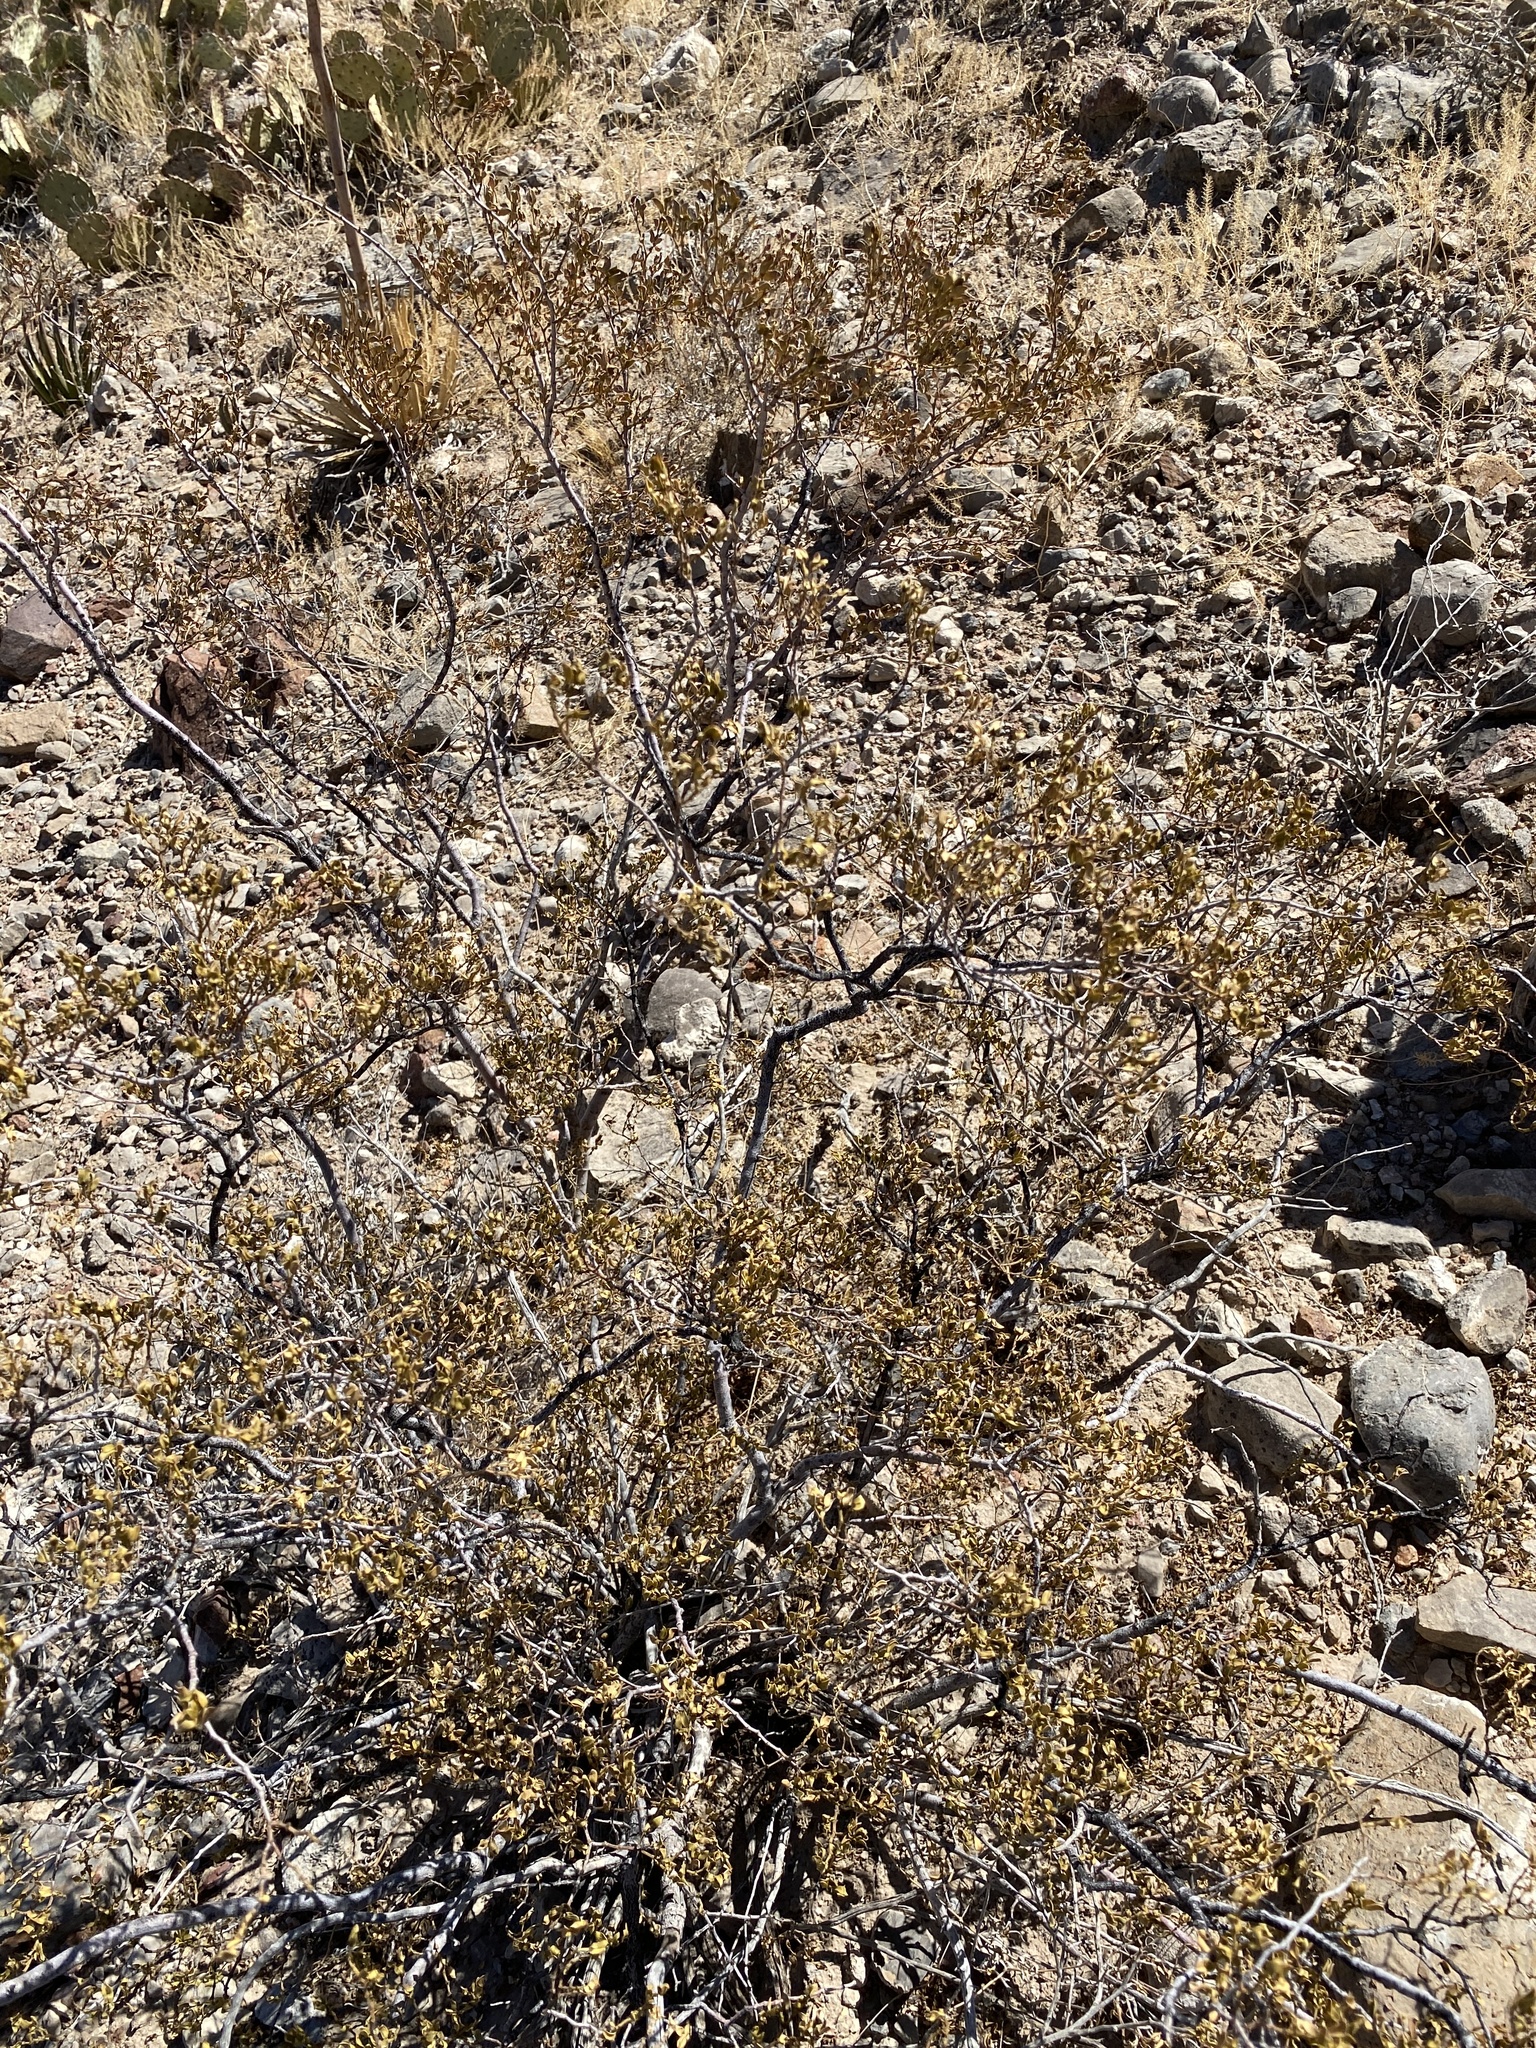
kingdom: Plantae
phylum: Tracheophyta
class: Magnoliopsida
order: Zygophyllales
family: Zygophyllaceae
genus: Larrea
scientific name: Larrea tridentata
